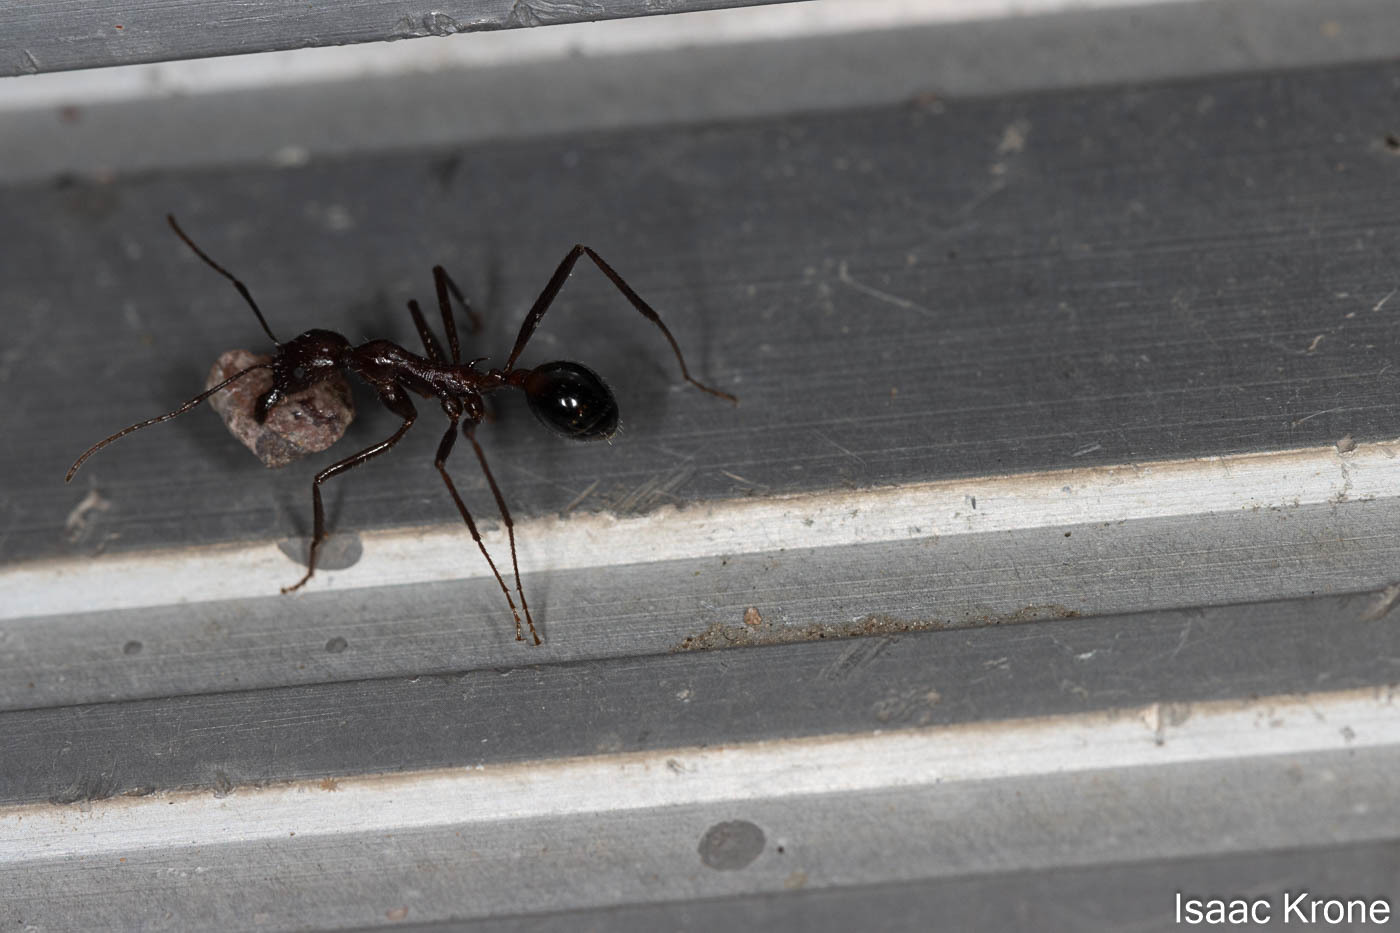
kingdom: Animalia
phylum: Arthropoda
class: Insecta
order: Hymenoptera
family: Formicidae
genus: Novomessor
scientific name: Novomessor cockerelli
